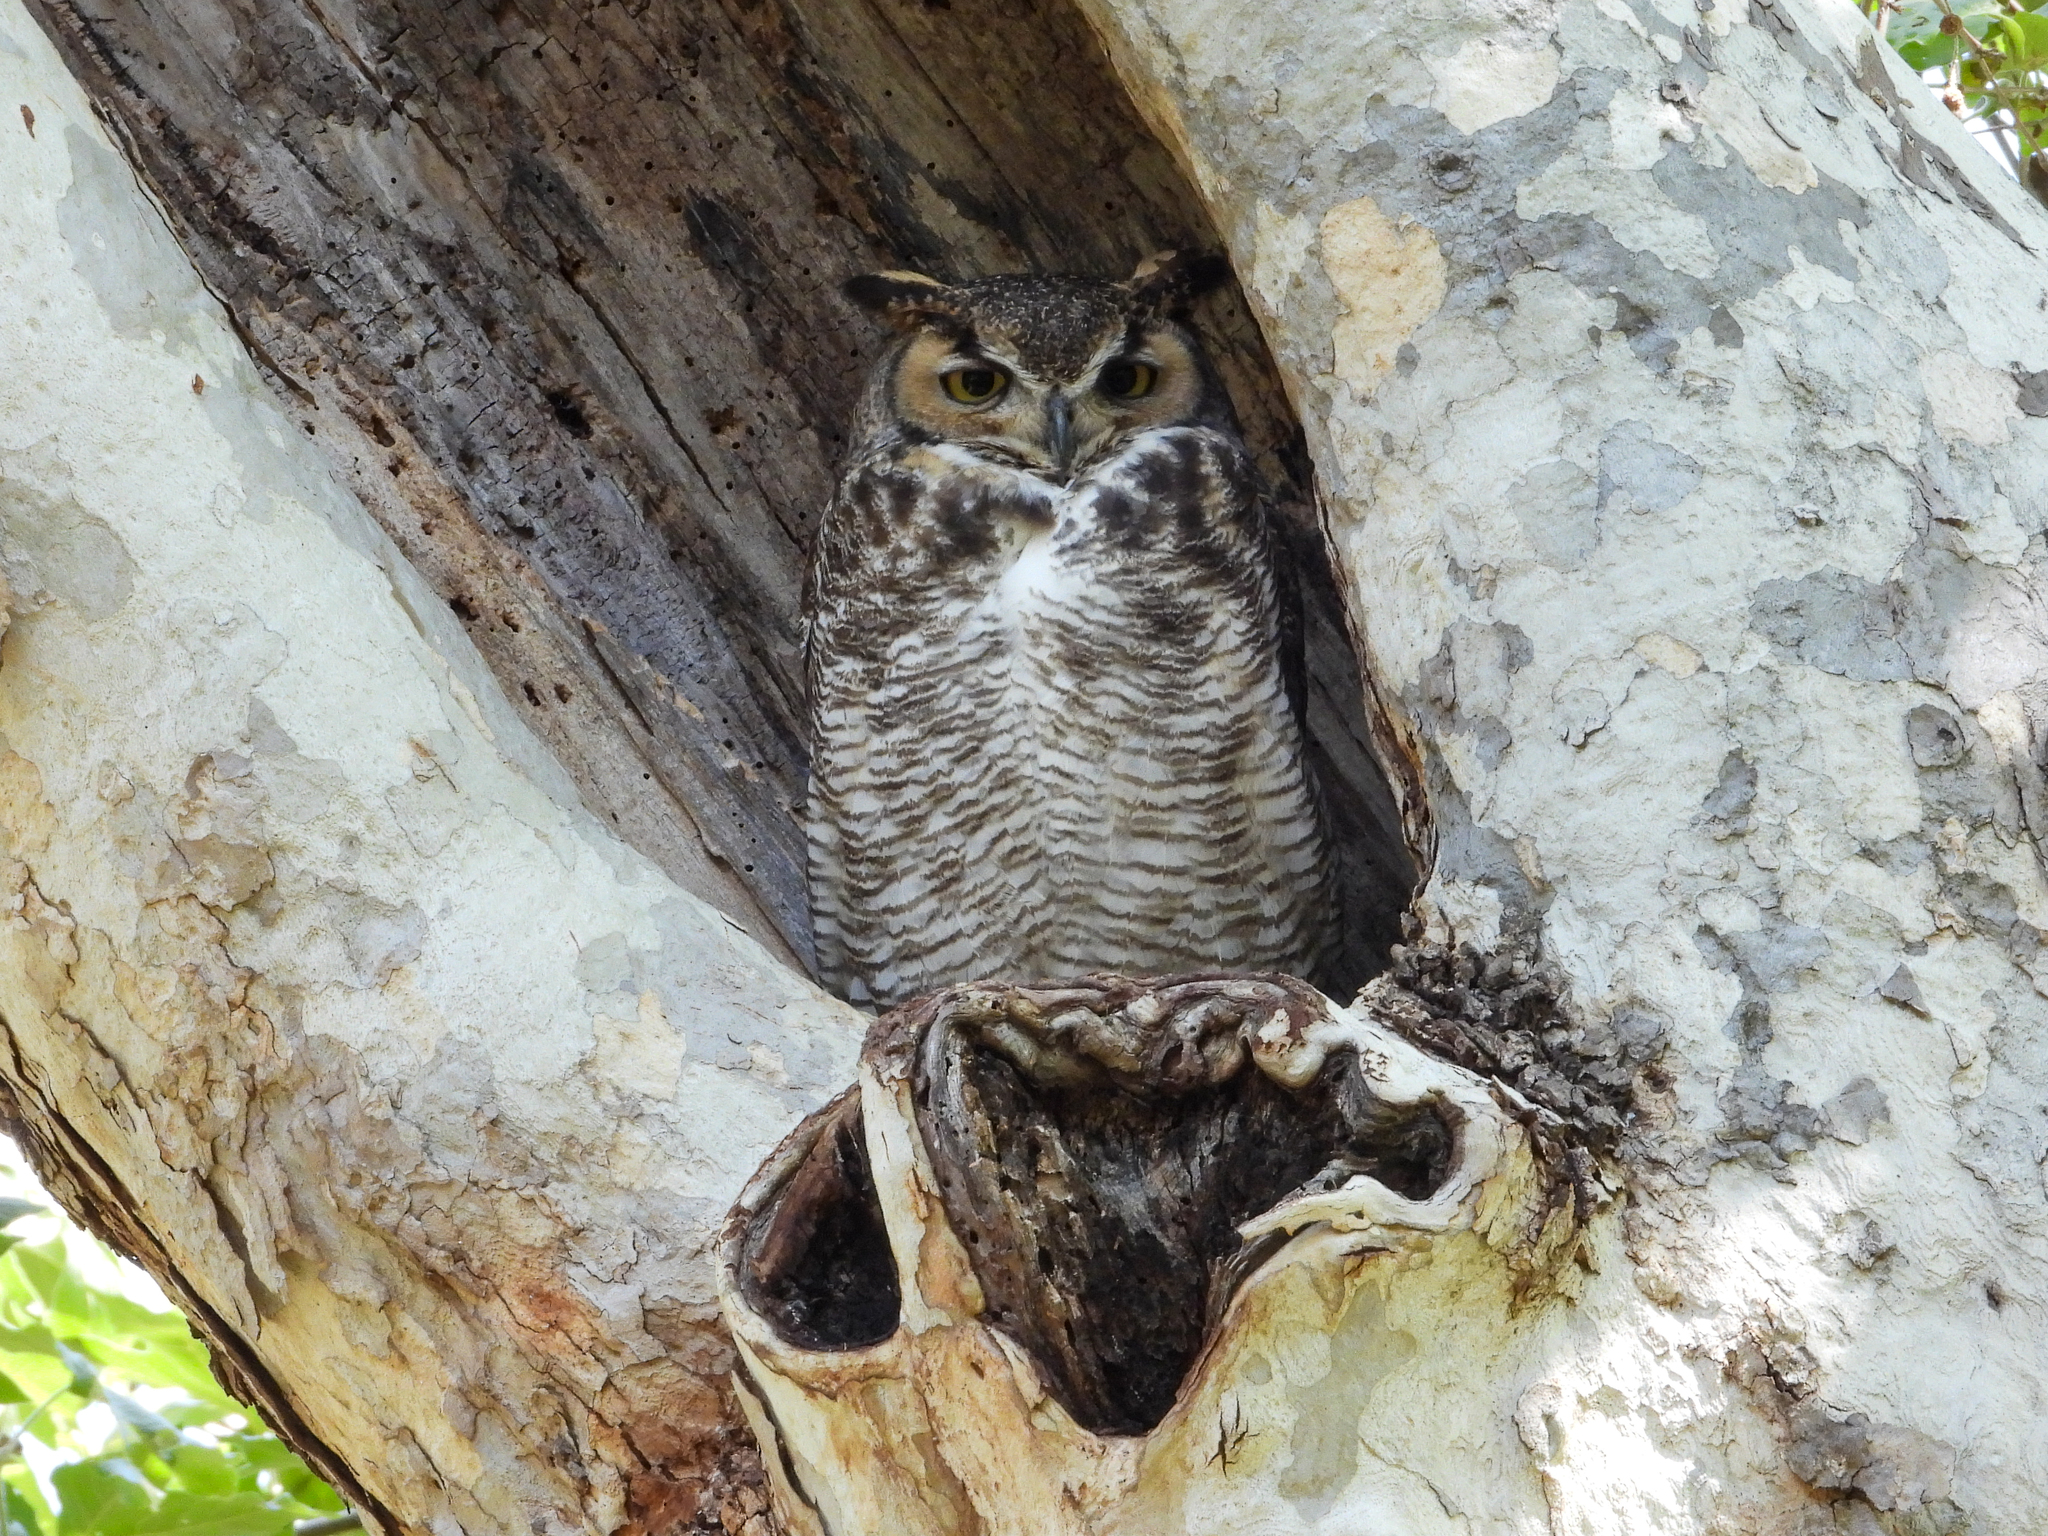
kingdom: Animalia
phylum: Chordata
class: Aves
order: Strigiformes
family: Strigidae
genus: Bubo
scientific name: Bubo virginianus
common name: Great horned owl
